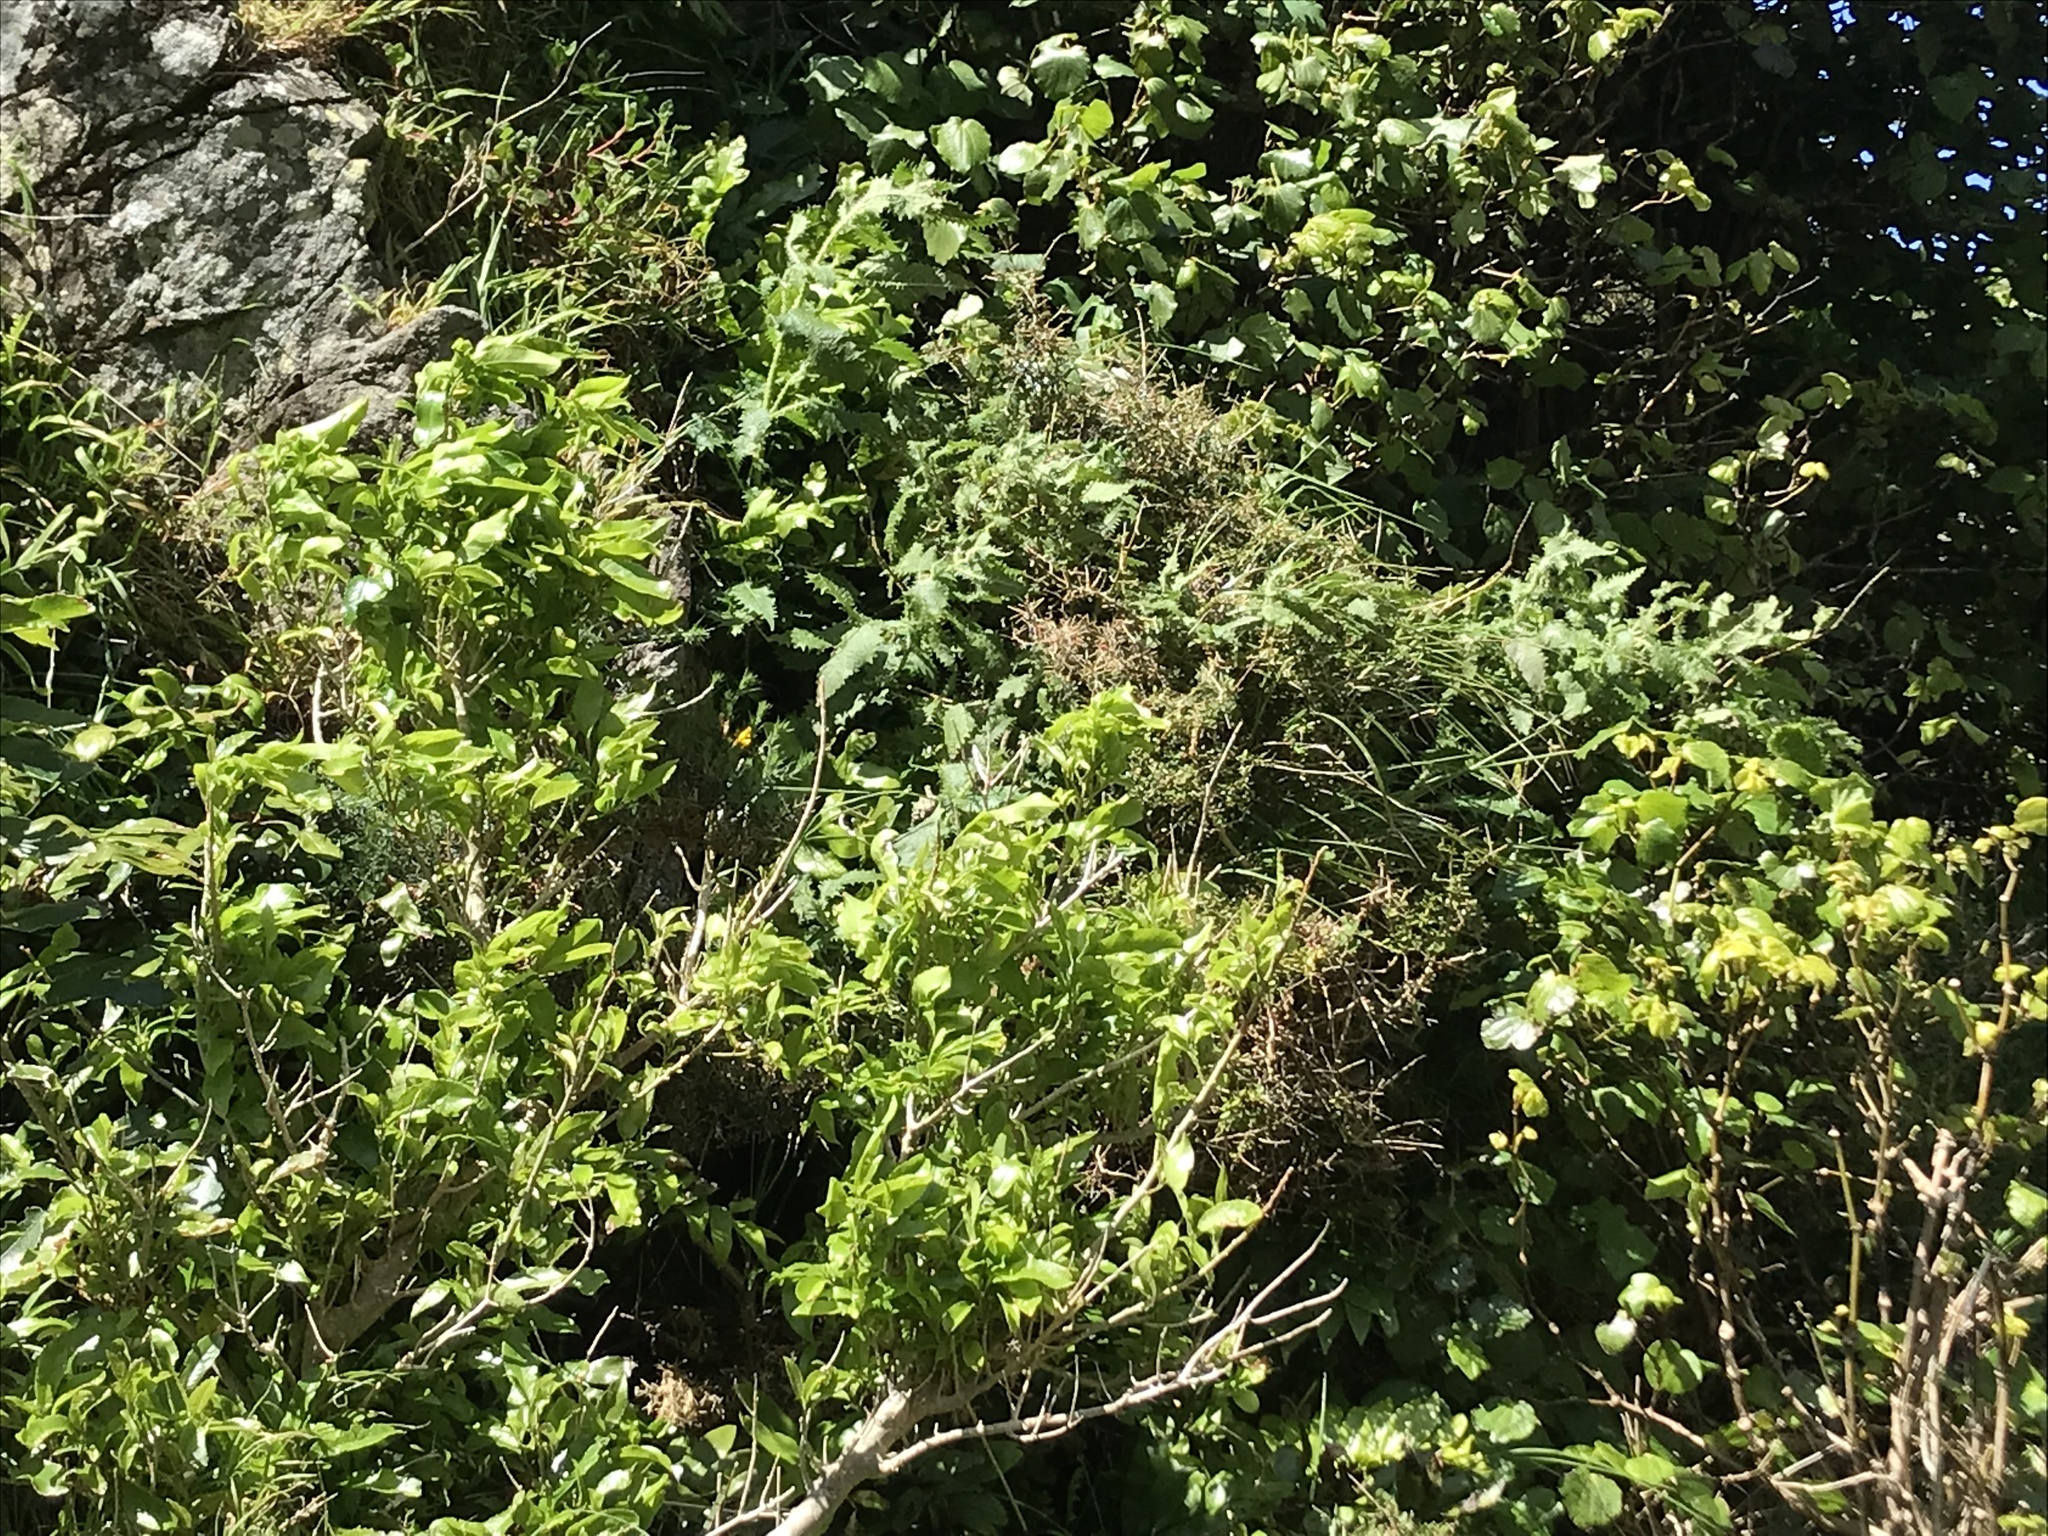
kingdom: Plantae
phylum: Tracheophyta
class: Magnoliopsida
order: Rosales
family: Urticaceae
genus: Urtica
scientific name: Urtica ferox
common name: Tree nettle
